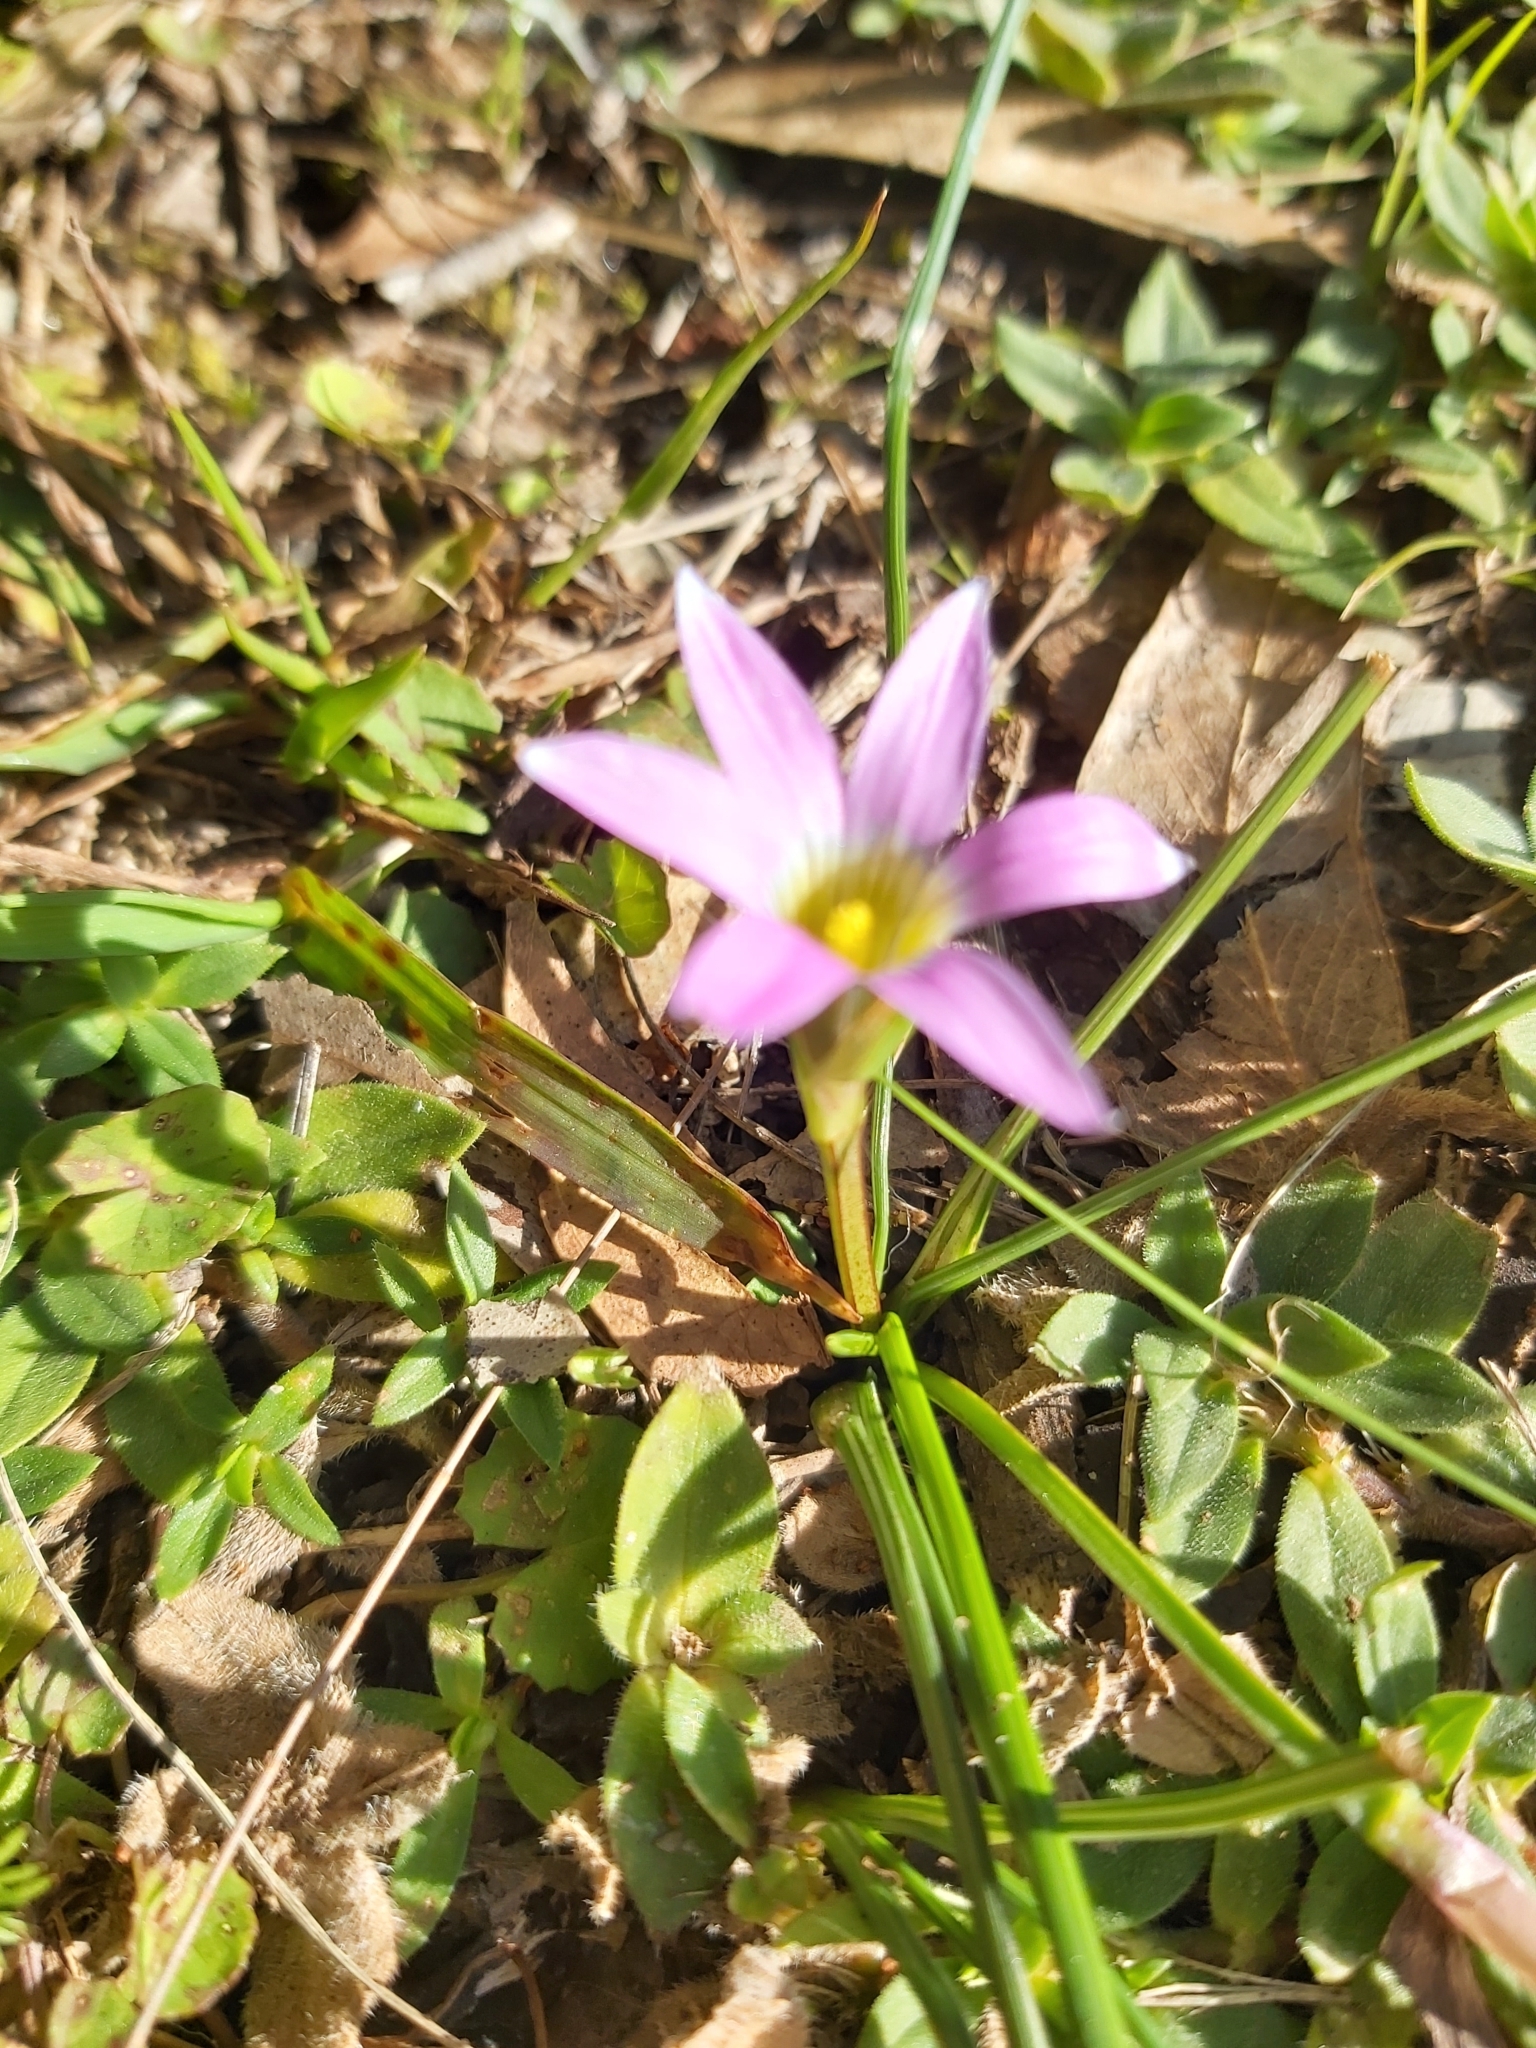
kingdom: Plantae
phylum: Tracheophyta
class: Liliopsida
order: Asparagales
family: Iridaceae
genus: Romulea
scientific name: Romulea rosea
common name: Oniongrass
